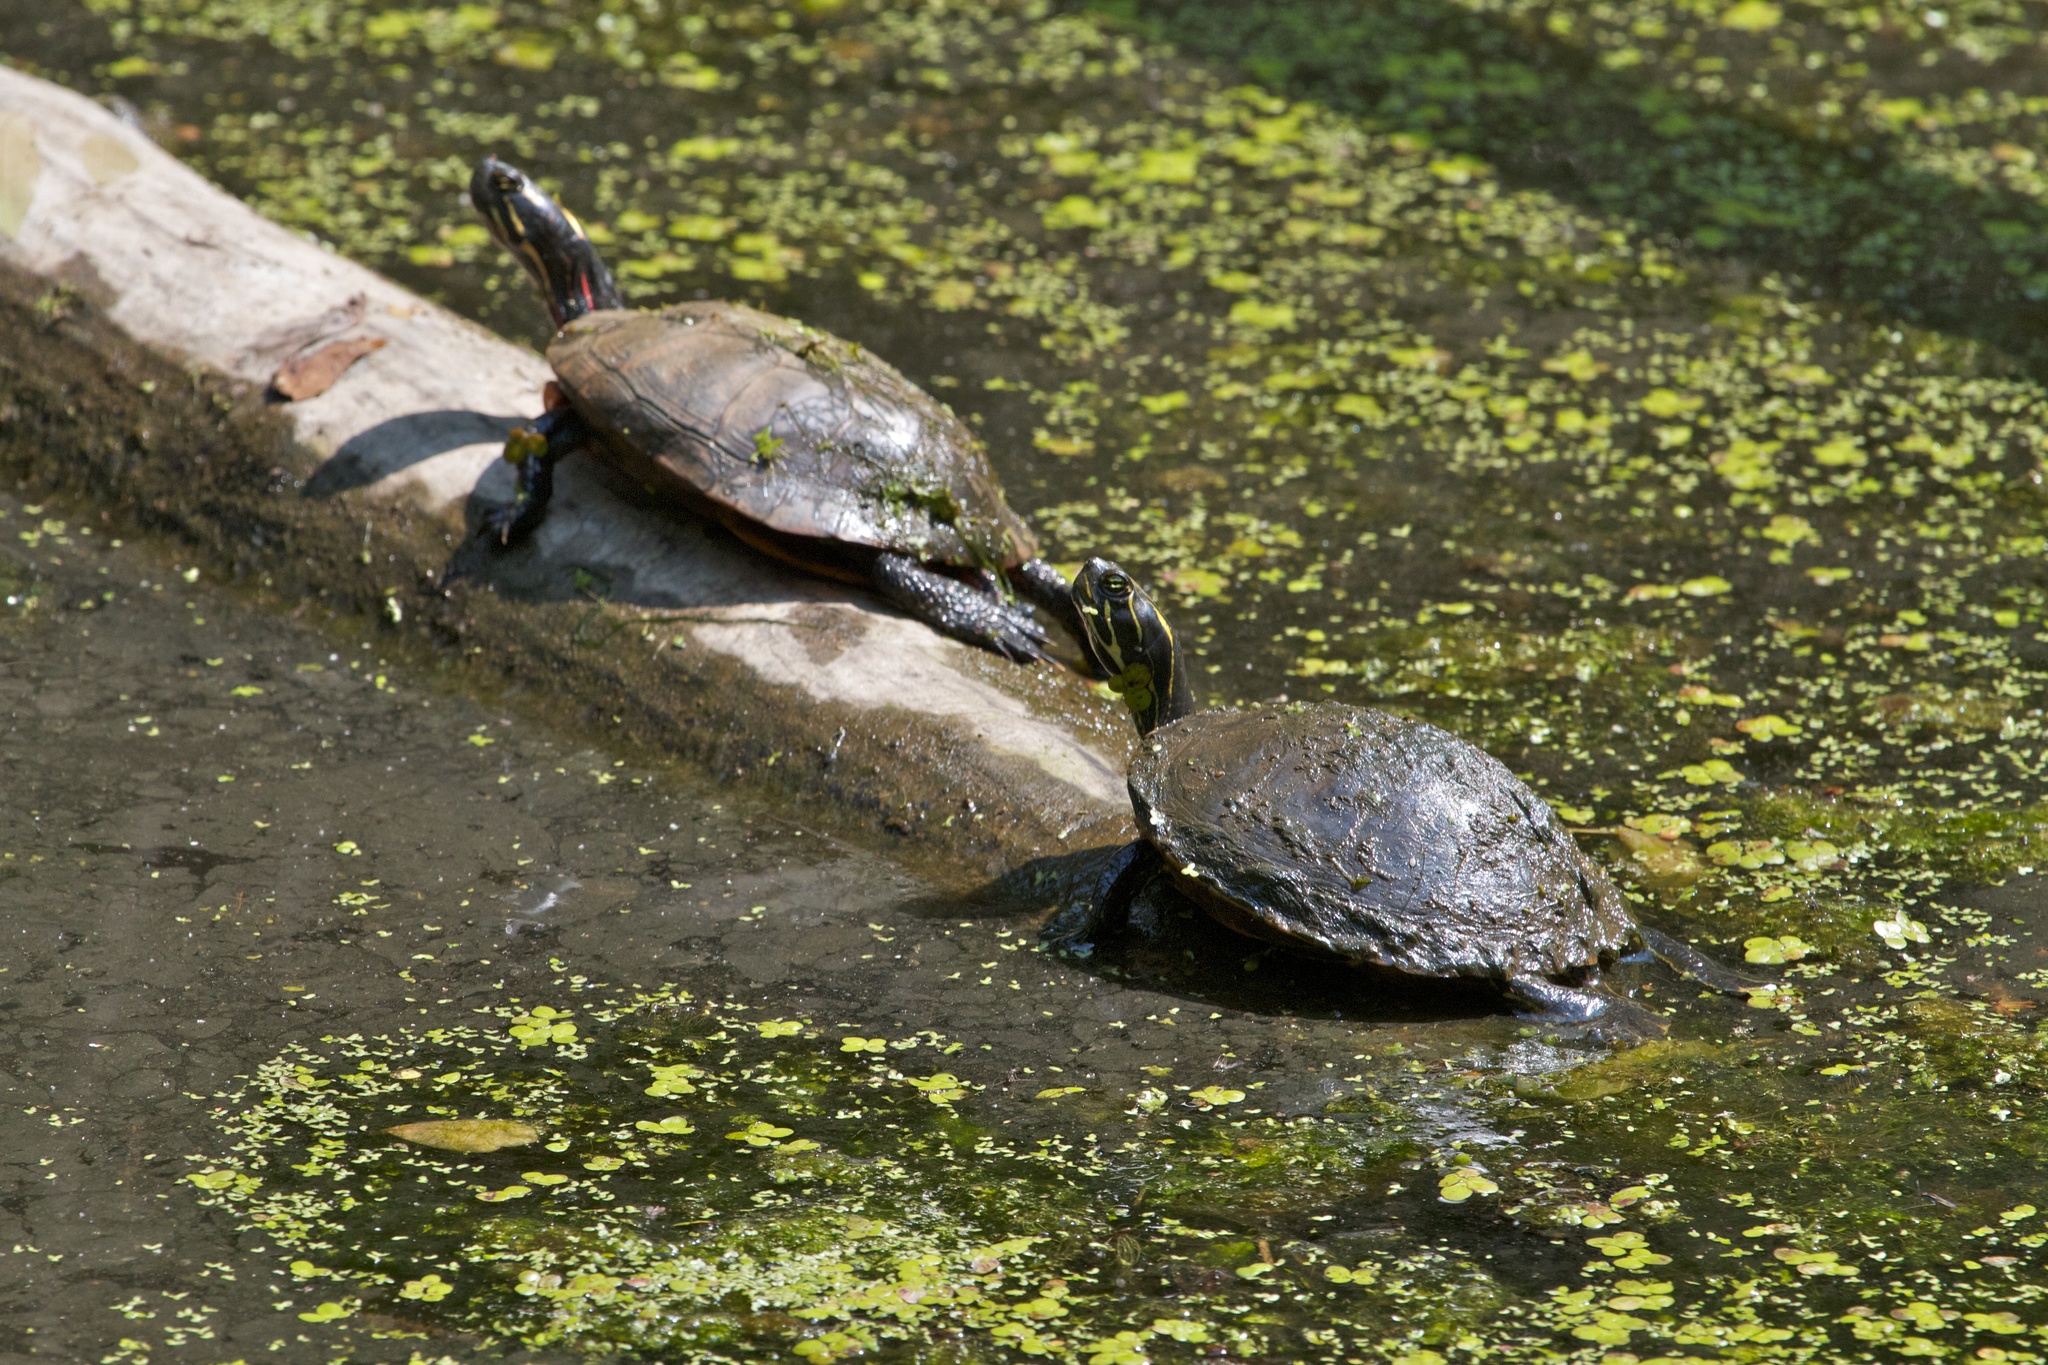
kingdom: Animalia
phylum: Chordata
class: Testudines
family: Emydidae
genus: Chrysemys
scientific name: Chrysemys picta
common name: Painted turtle
